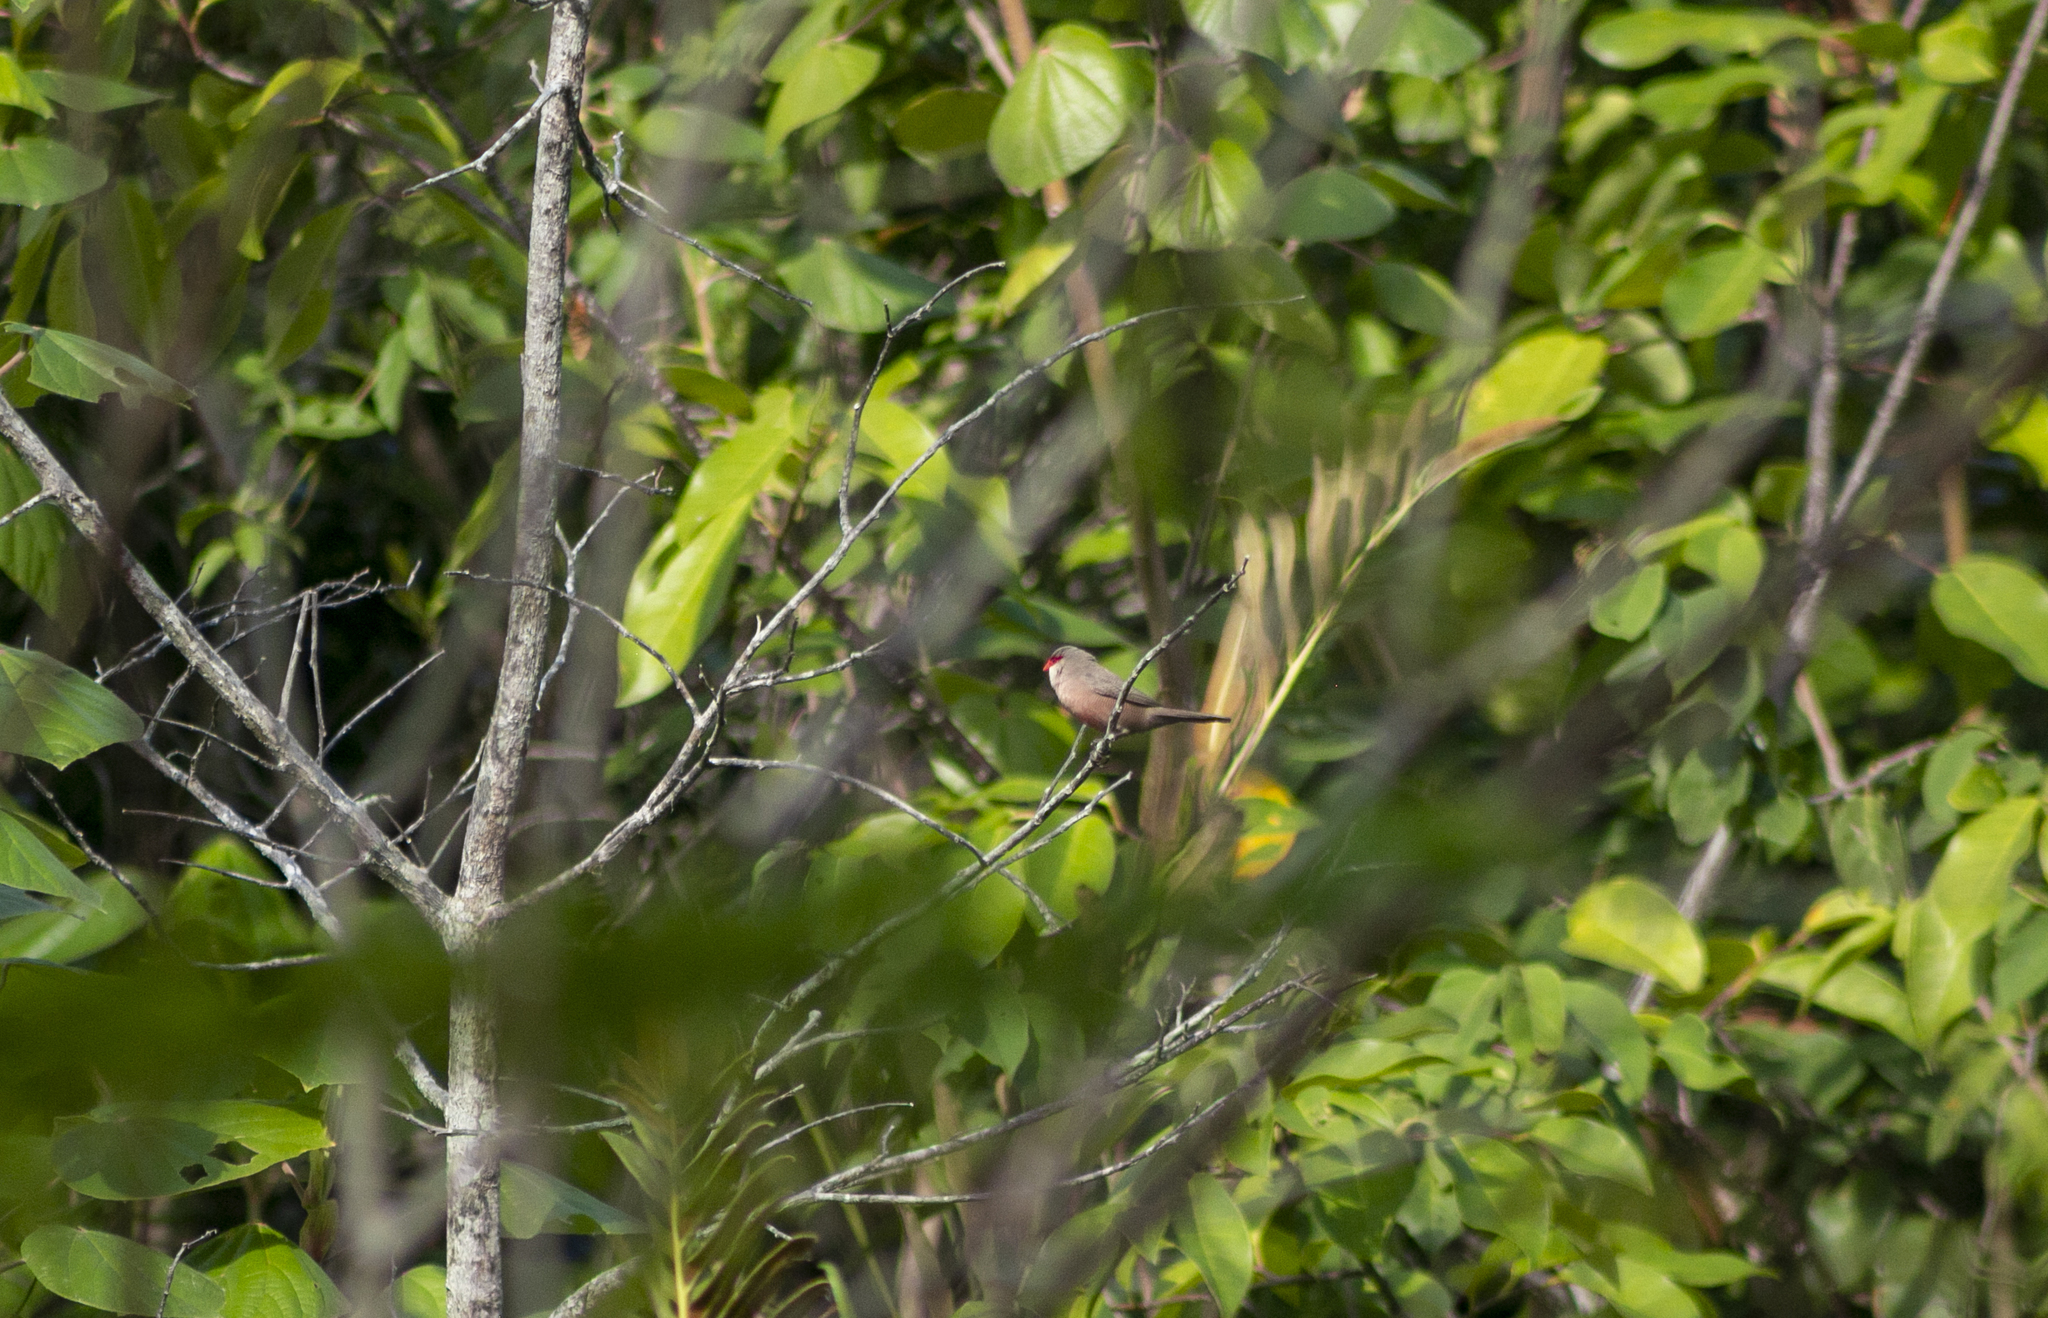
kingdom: Animalia
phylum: Chordata
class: Aves
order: Passeriformes
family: Estrildidae
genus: Estrilda
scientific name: Estrilda astrild
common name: Common waxbill
